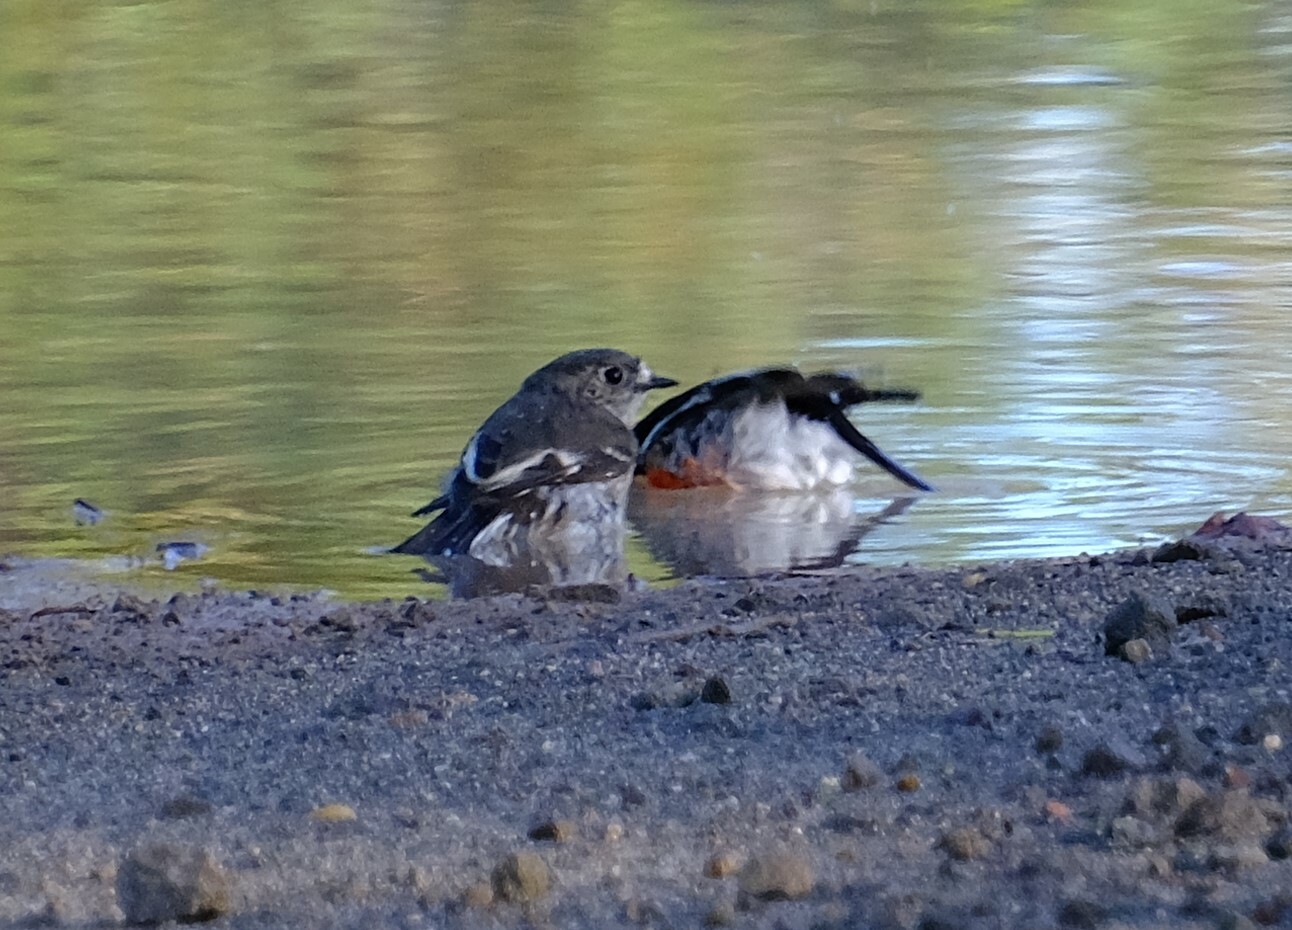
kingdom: Animalia
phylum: Chordata
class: Aves
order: Passeriformes
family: Petroicidae
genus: Petroica
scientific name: Petroica boodang
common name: Scarlet robin
